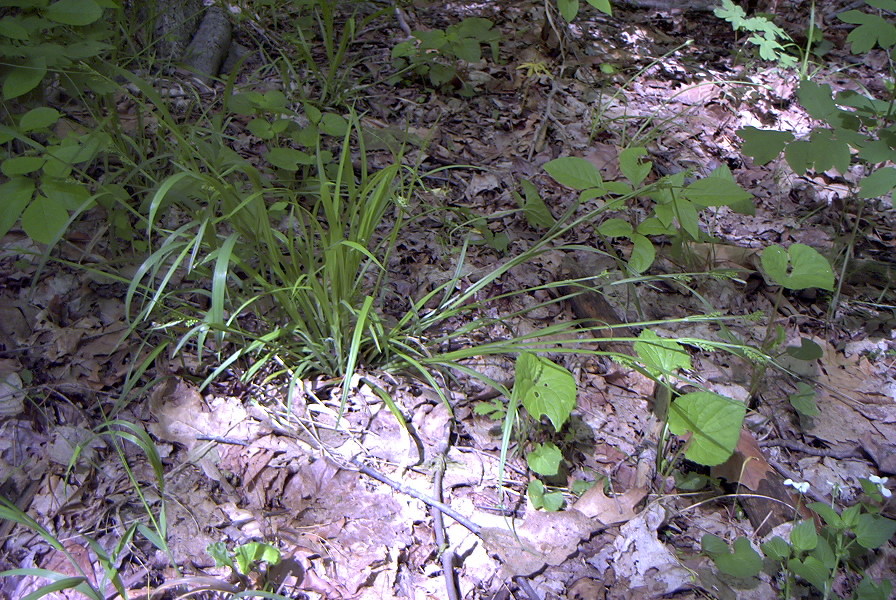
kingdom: Plantae
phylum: Tracheophyta
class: Liliopsida
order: Poales
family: Cyperaceae
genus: Carex
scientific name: Carex blanda
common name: Bland sedge
